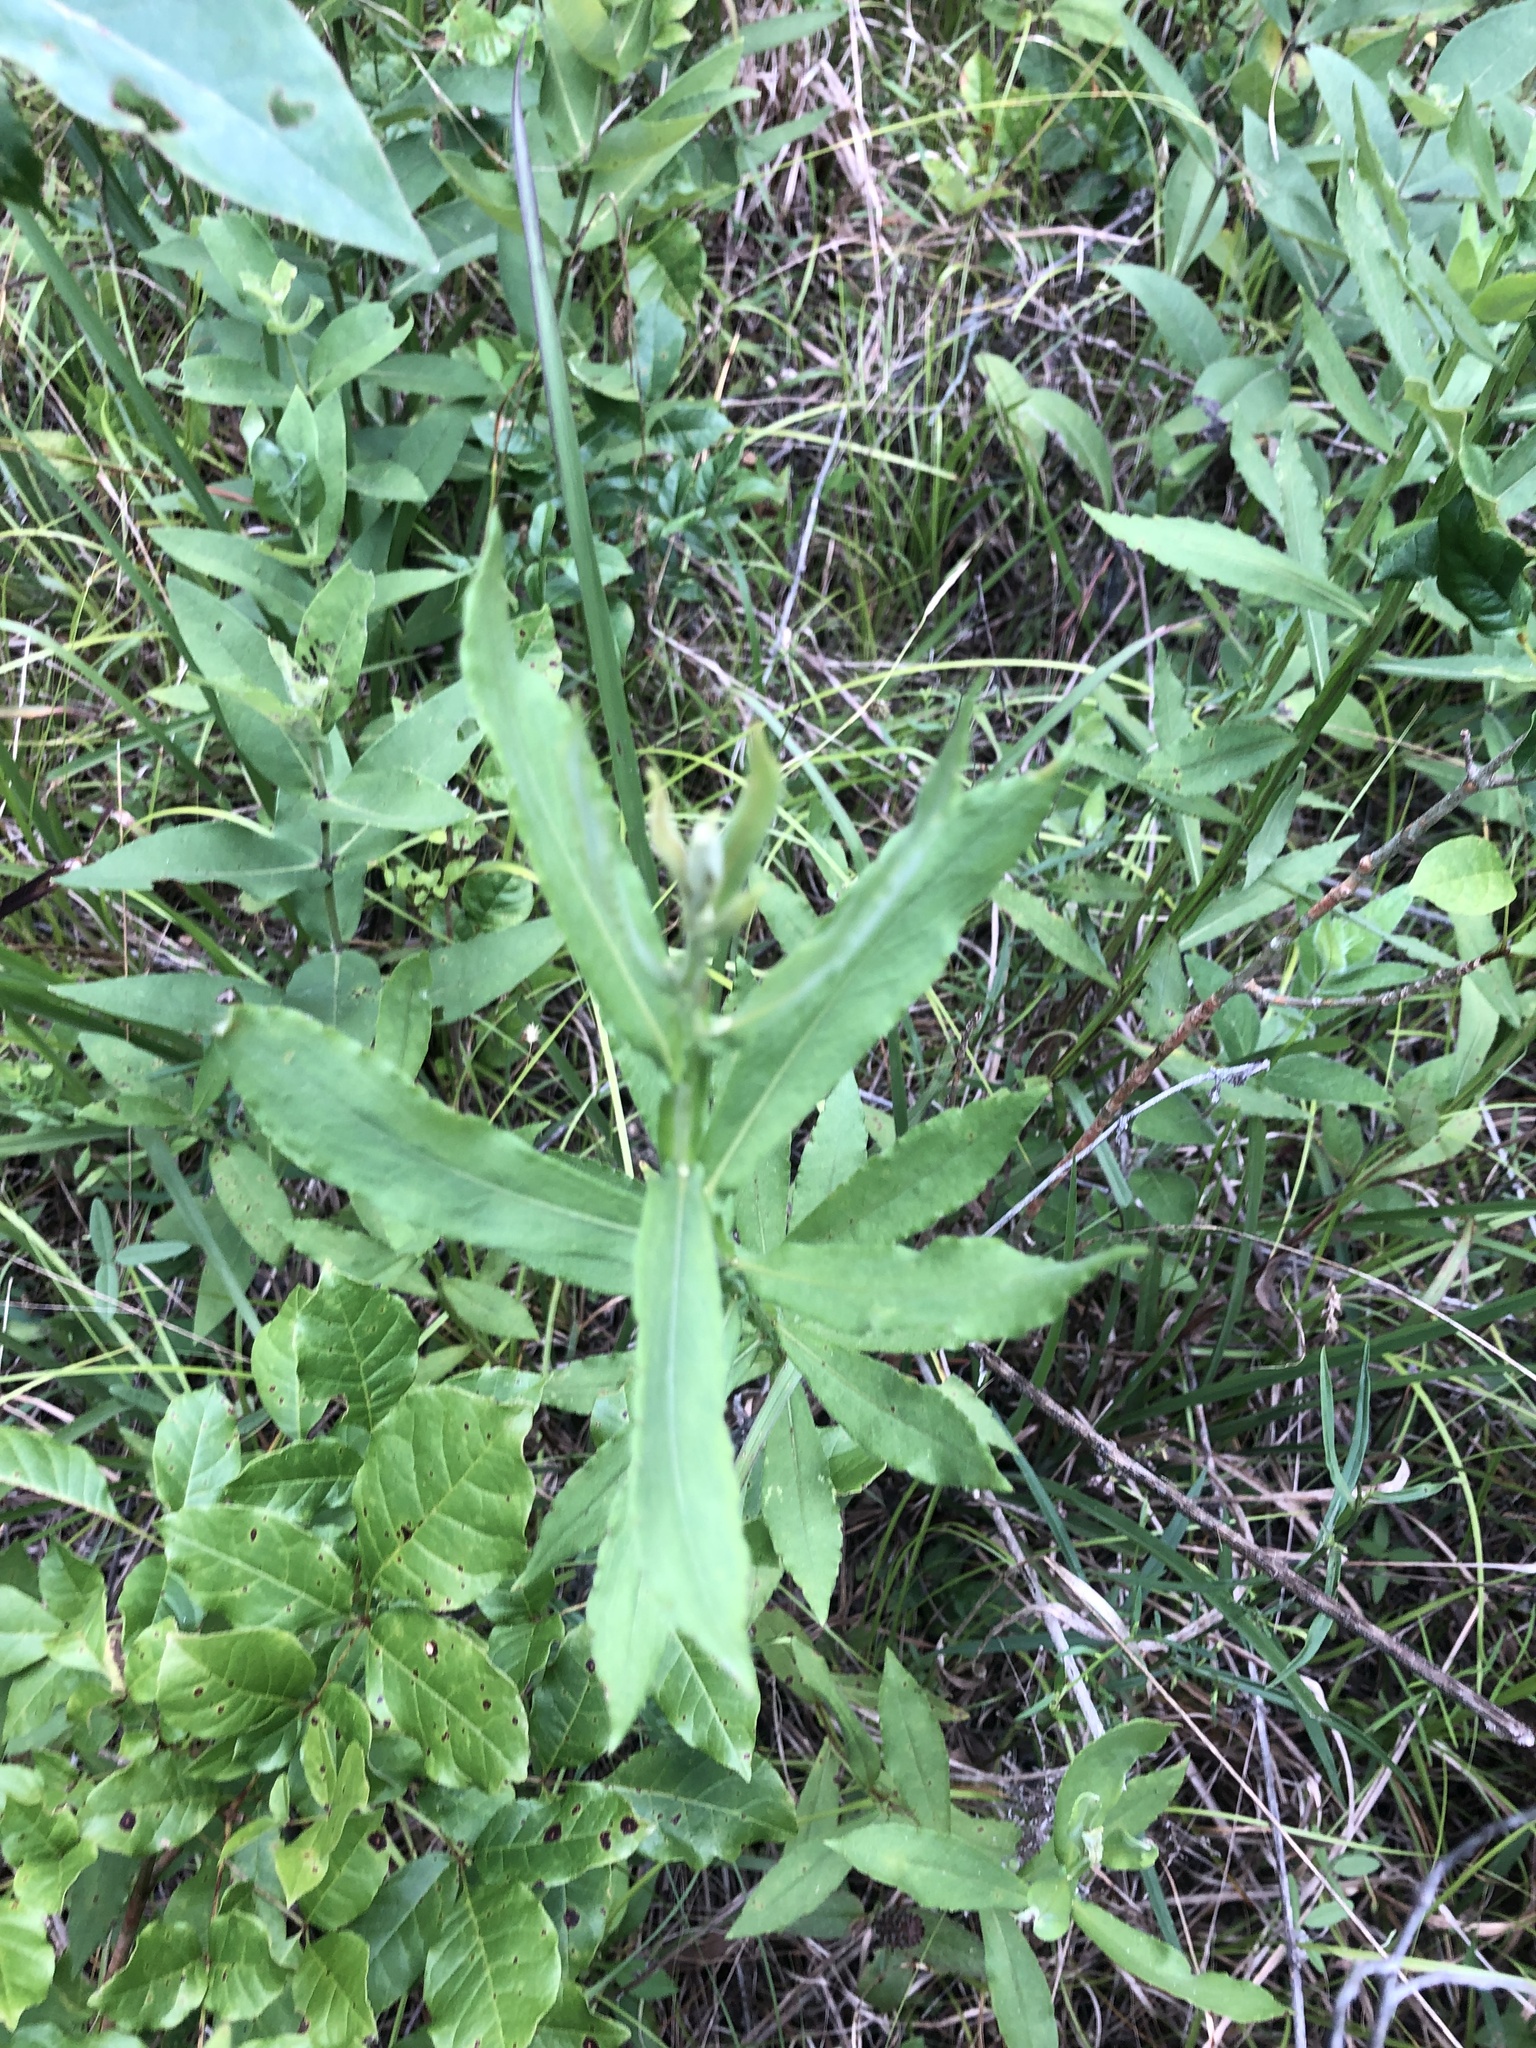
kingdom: Plantae
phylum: Tracheophyta
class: Magnoliopsida
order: Asterales
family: Asteraceae
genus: Helenium
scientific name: Helenium autumnale
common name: Sneezeweed
